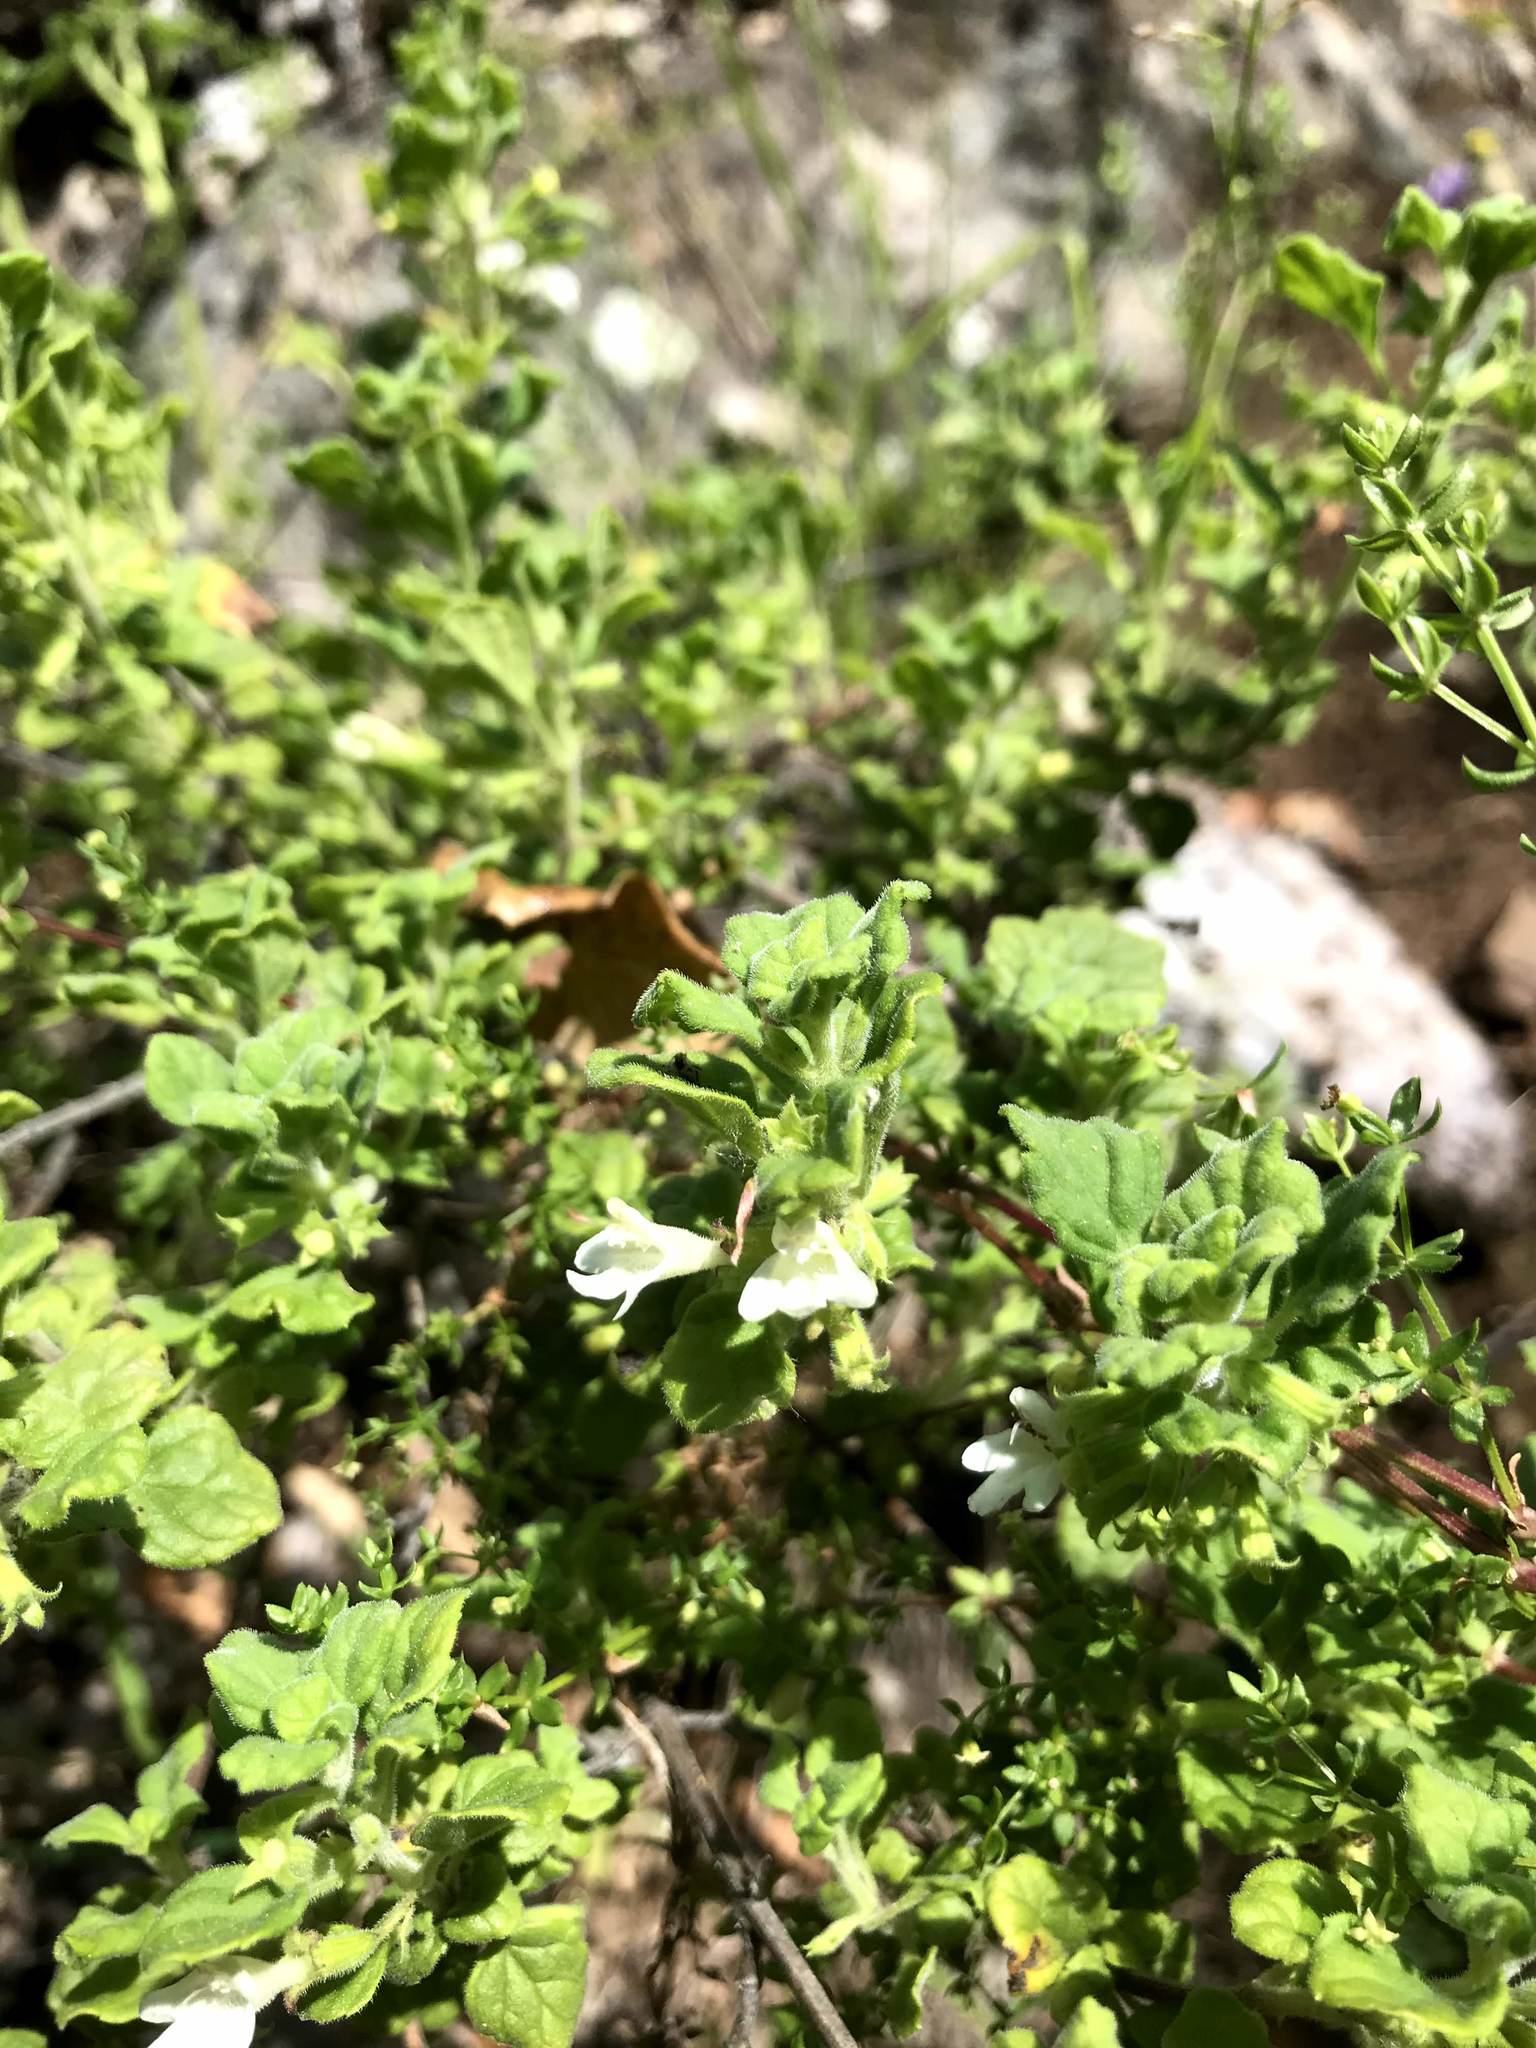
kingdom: Plantae
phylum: Tracheophyta
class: Magnoliopsida
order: Lamiales
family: Lamiaceae
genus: Clinopodium
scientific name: Clinopodium chandleri
